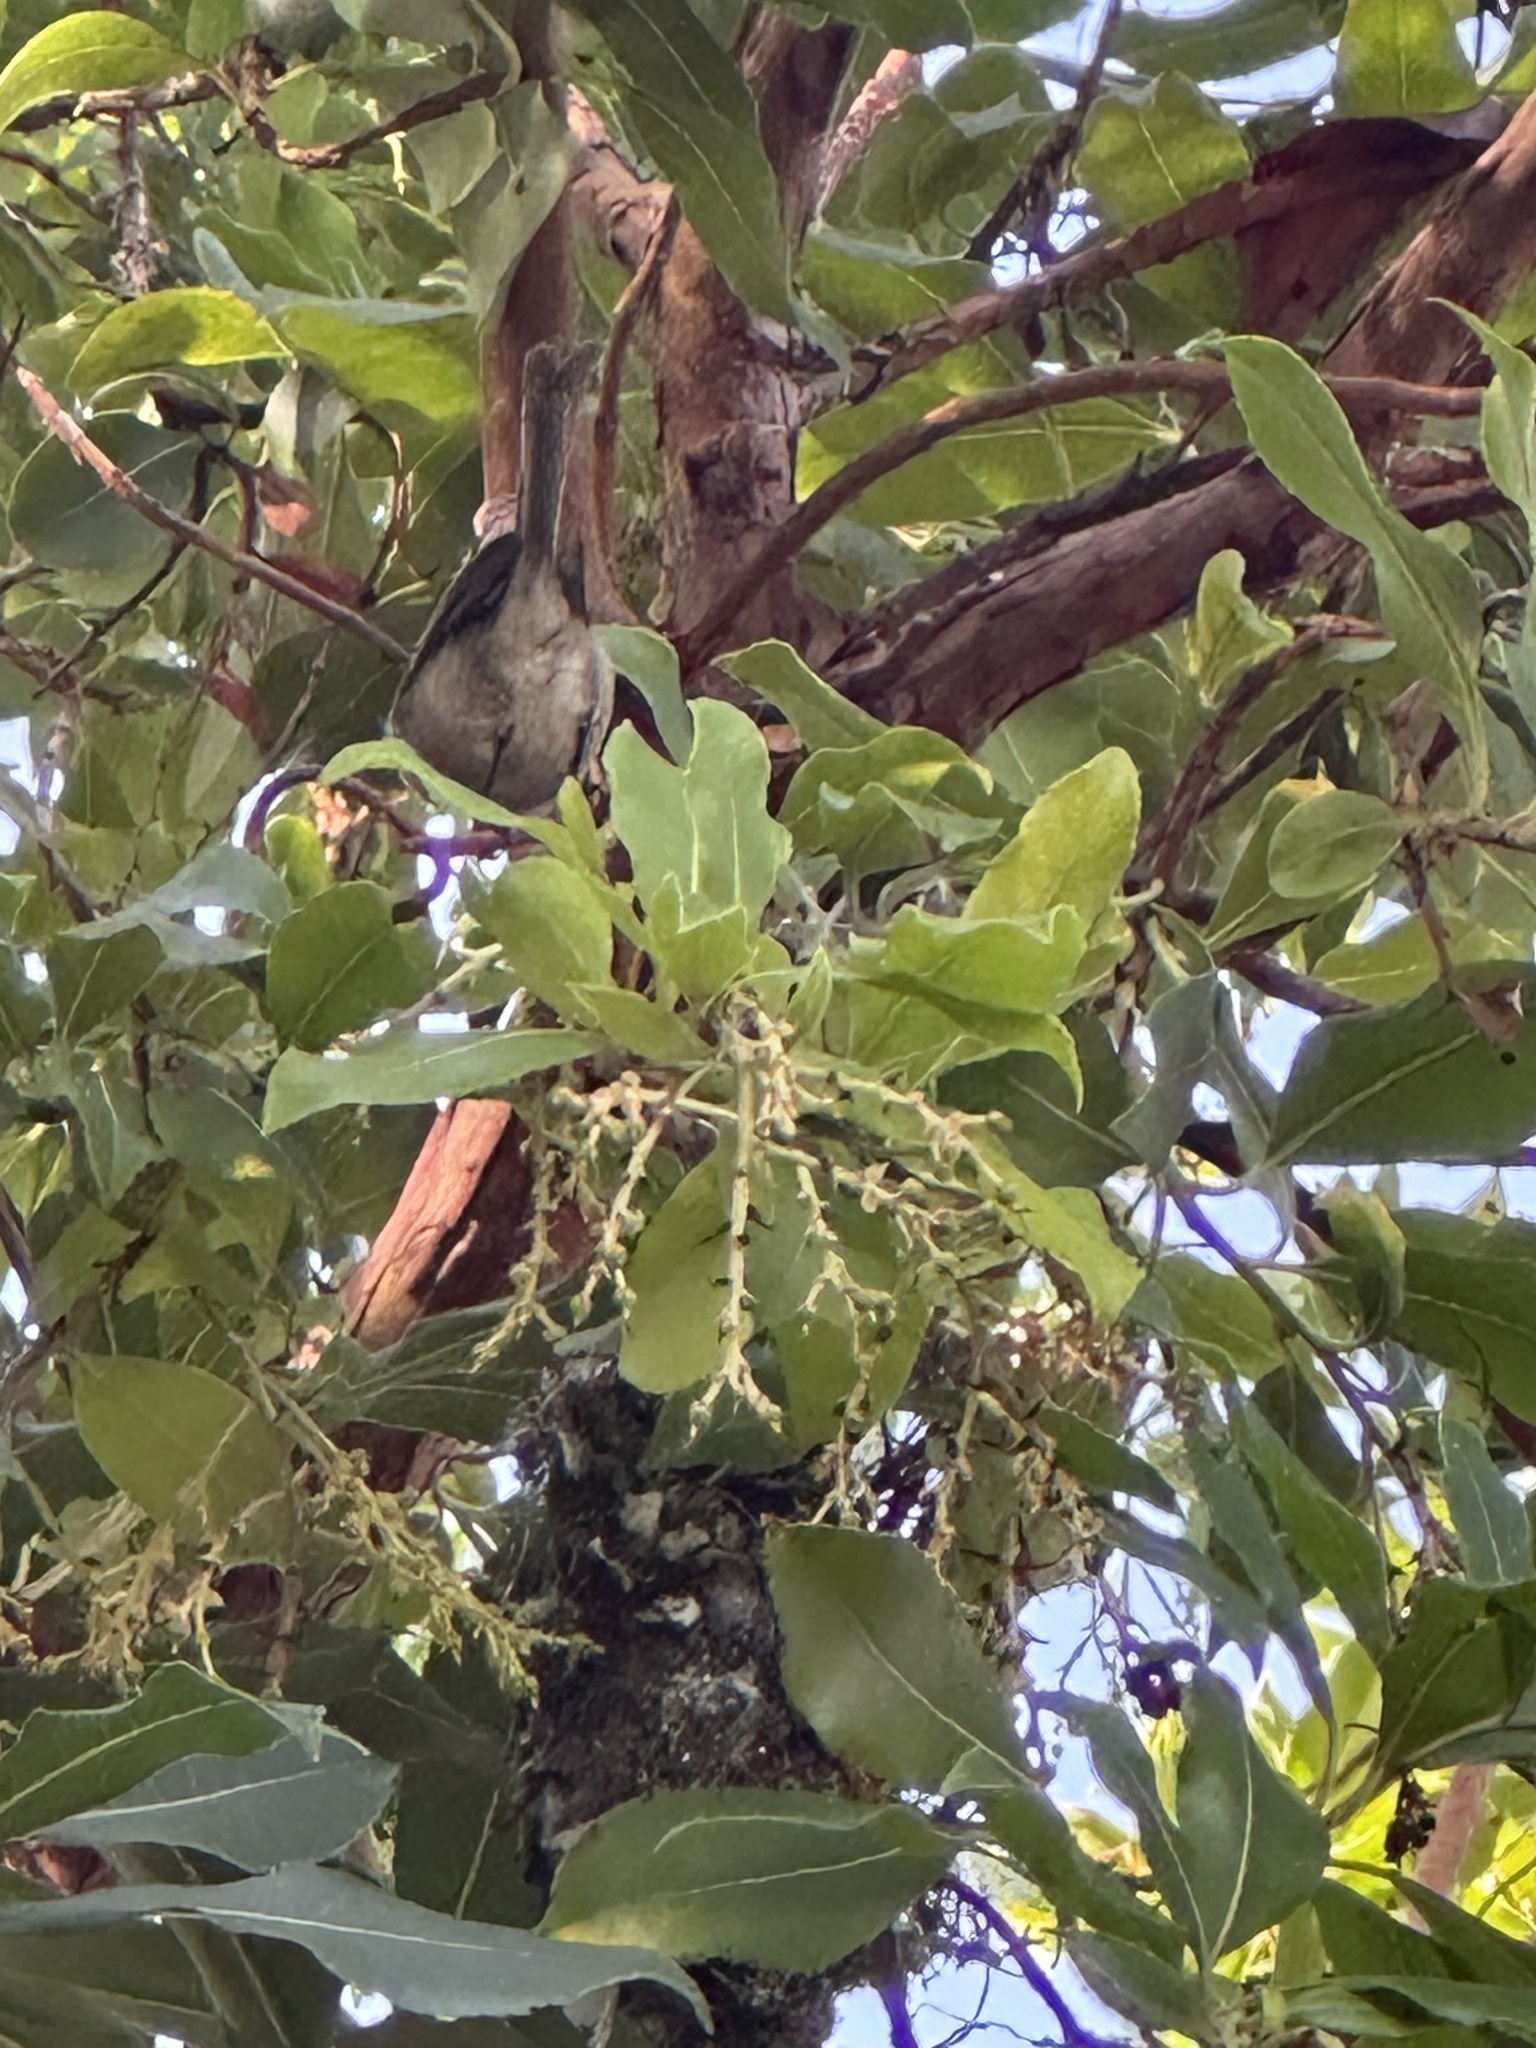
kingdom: Animalia
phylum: Chordata
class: Aves
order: Passeriformes
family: Aegithalidae
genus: Psaltriparus
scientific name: Psaltriparus minimus
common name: American bushtit
